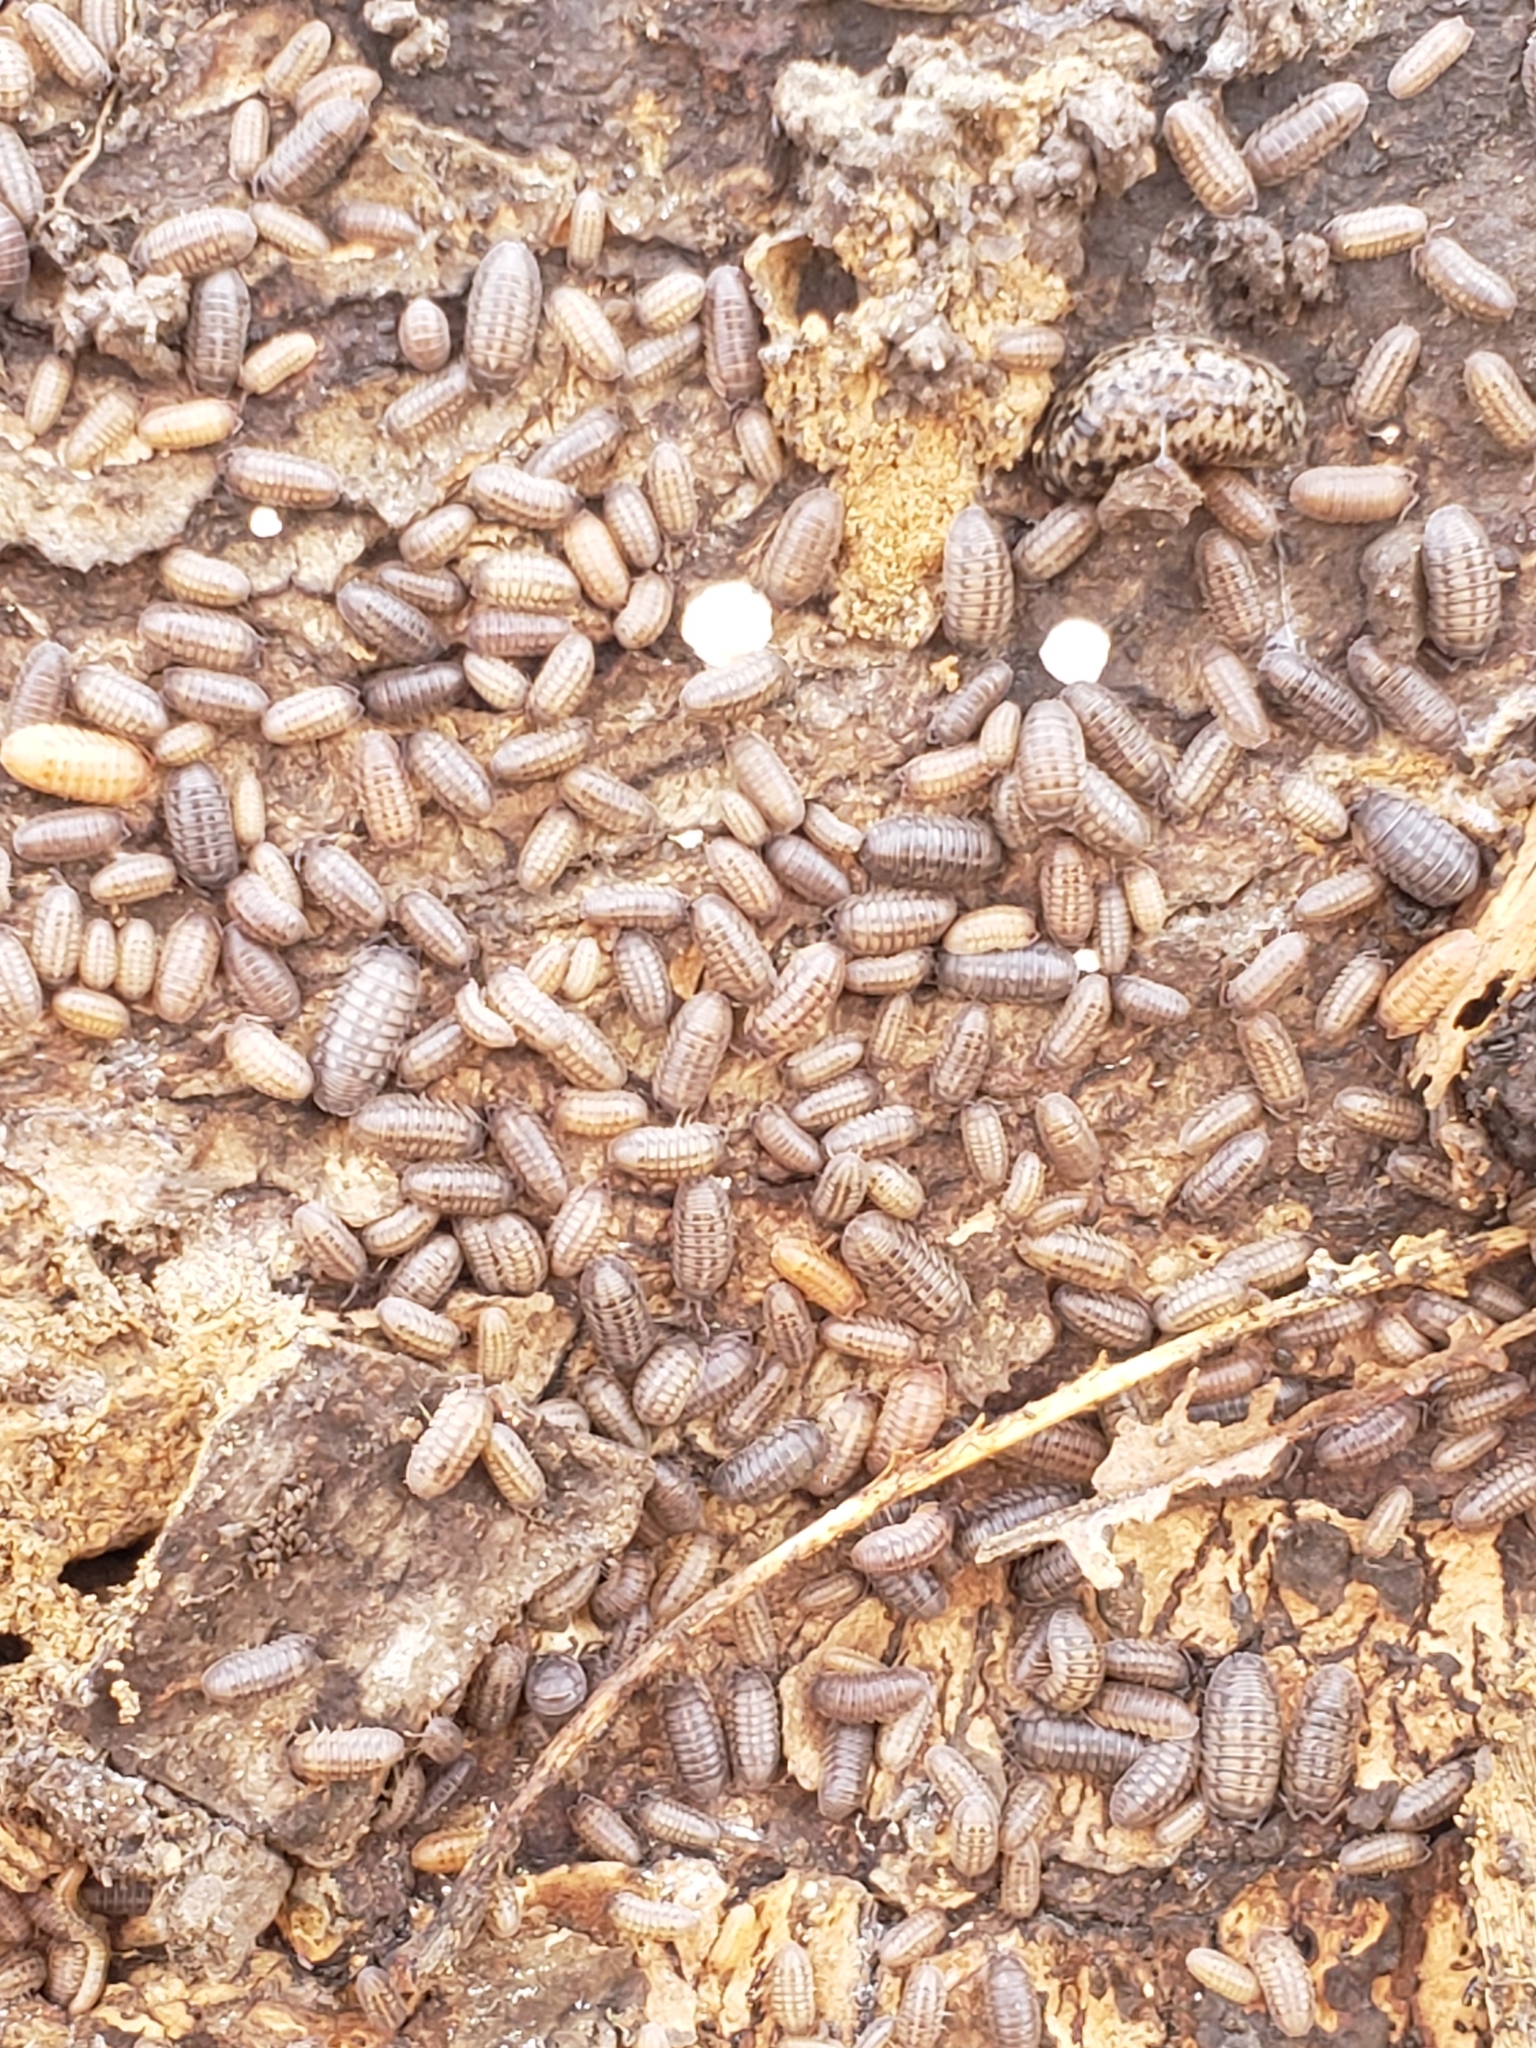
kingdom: Animalia
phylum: Arthropoda
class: Malacostraca
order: Isopoda
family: Armadillidiidae
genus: Armadillidium
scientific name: Armadillidium nasatum
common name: Isopod
